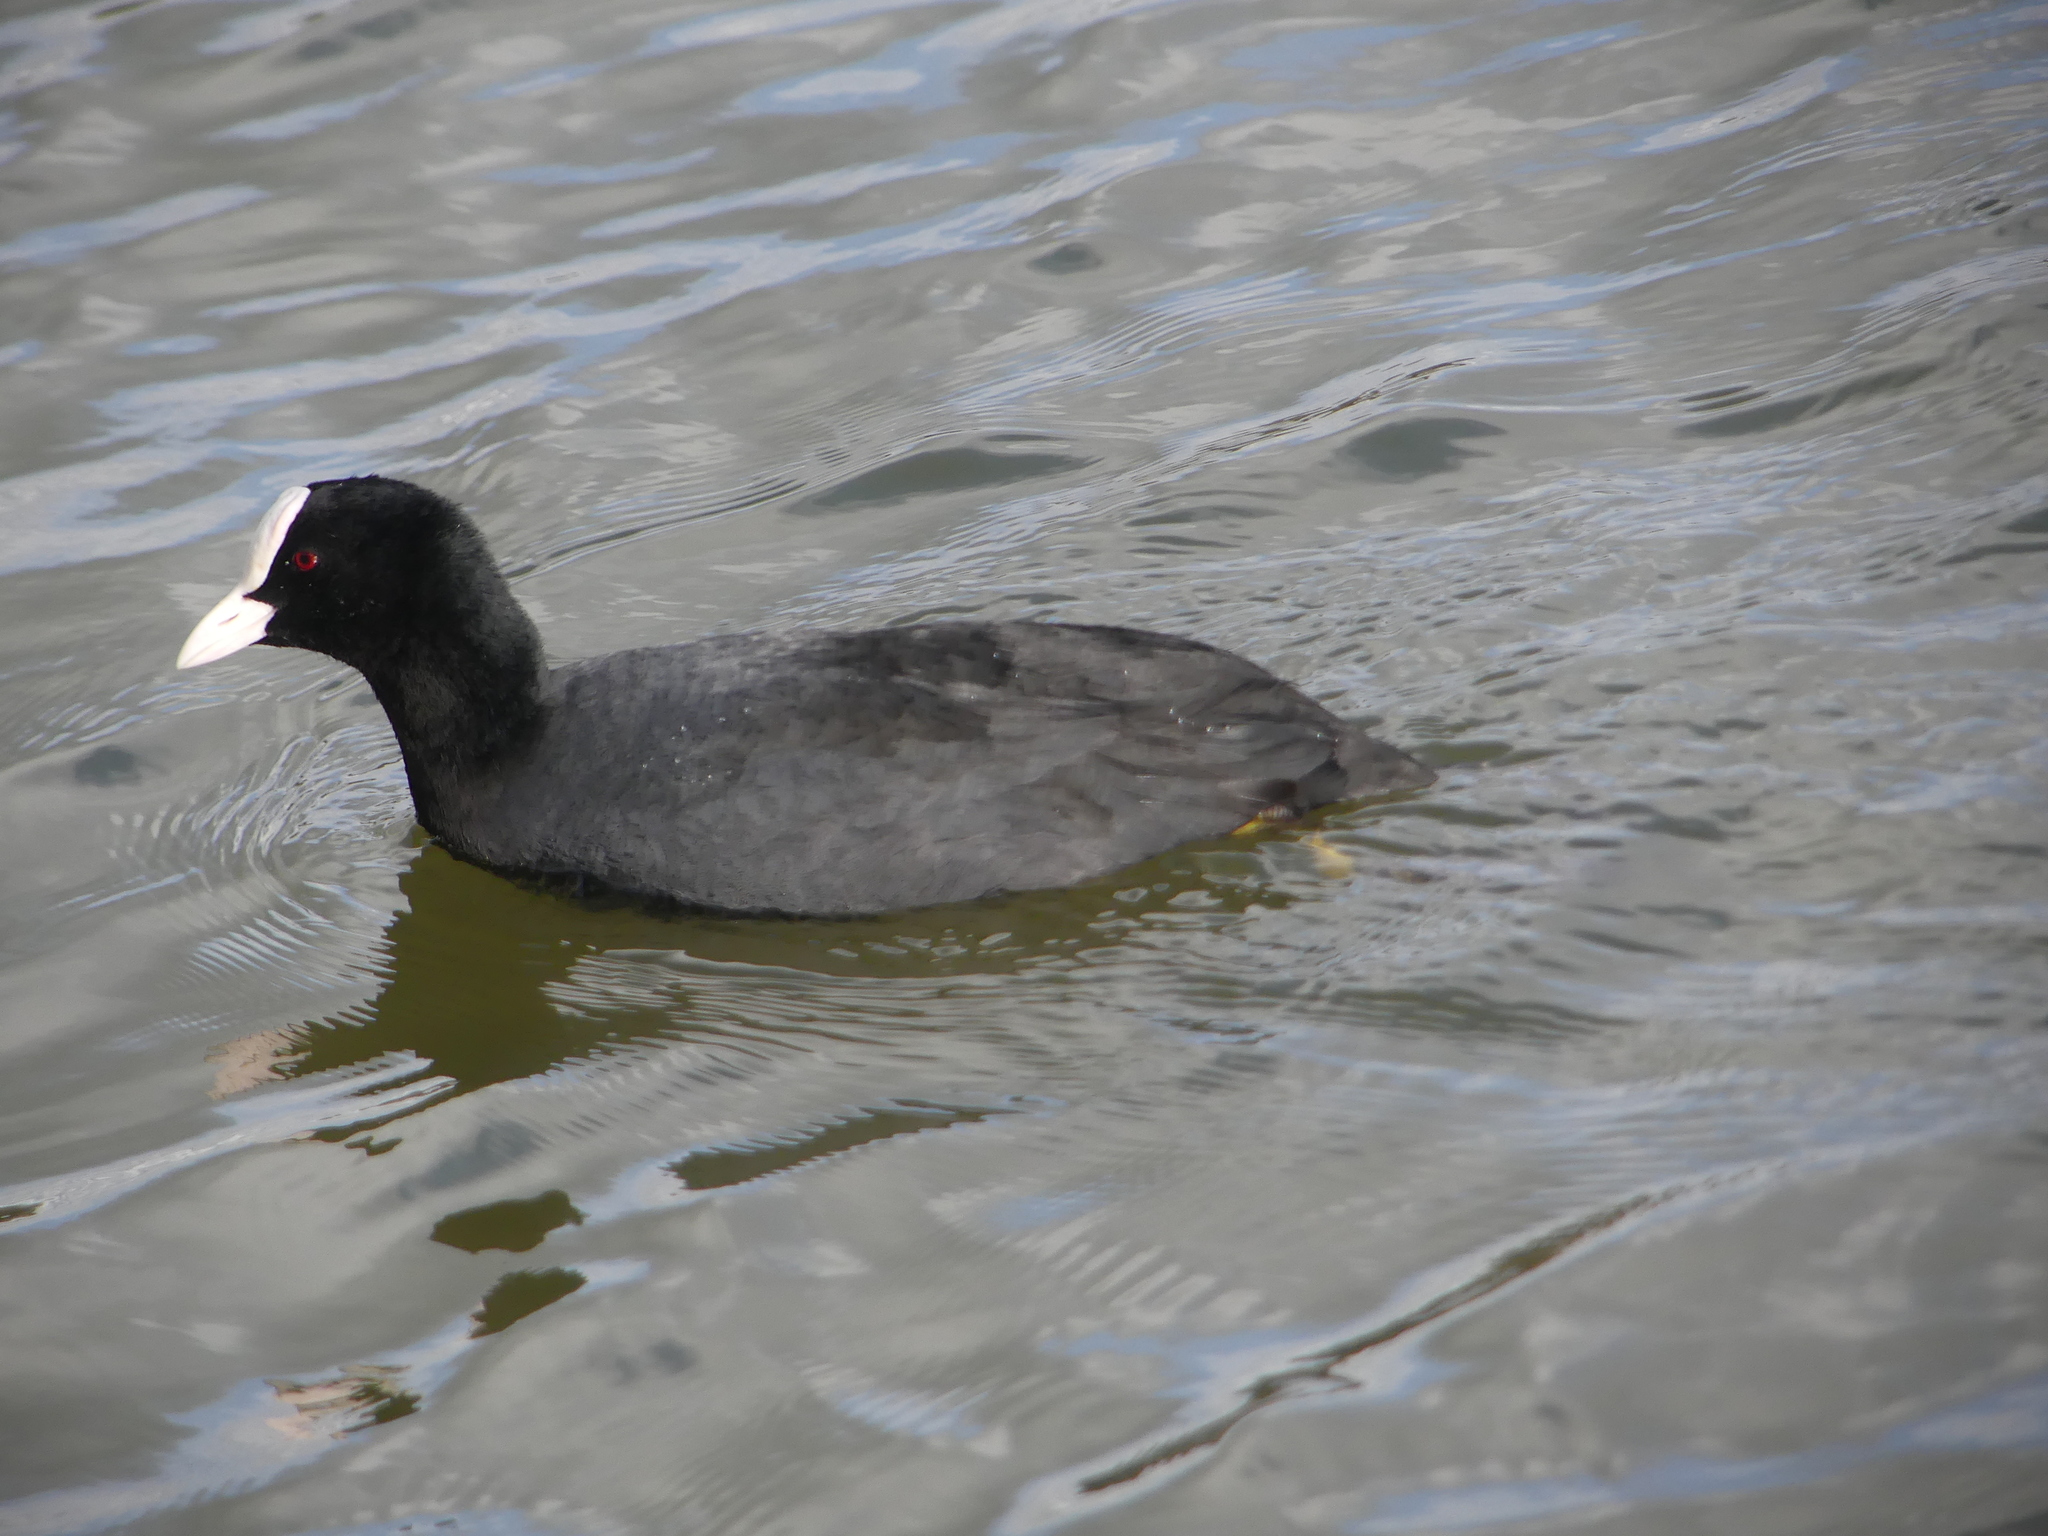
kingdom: Animalia
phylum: Chordata
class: Aves
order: Gruiformes
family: Rallidae
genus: Fulica
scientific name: Fulica atra
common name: Eurasian coot
